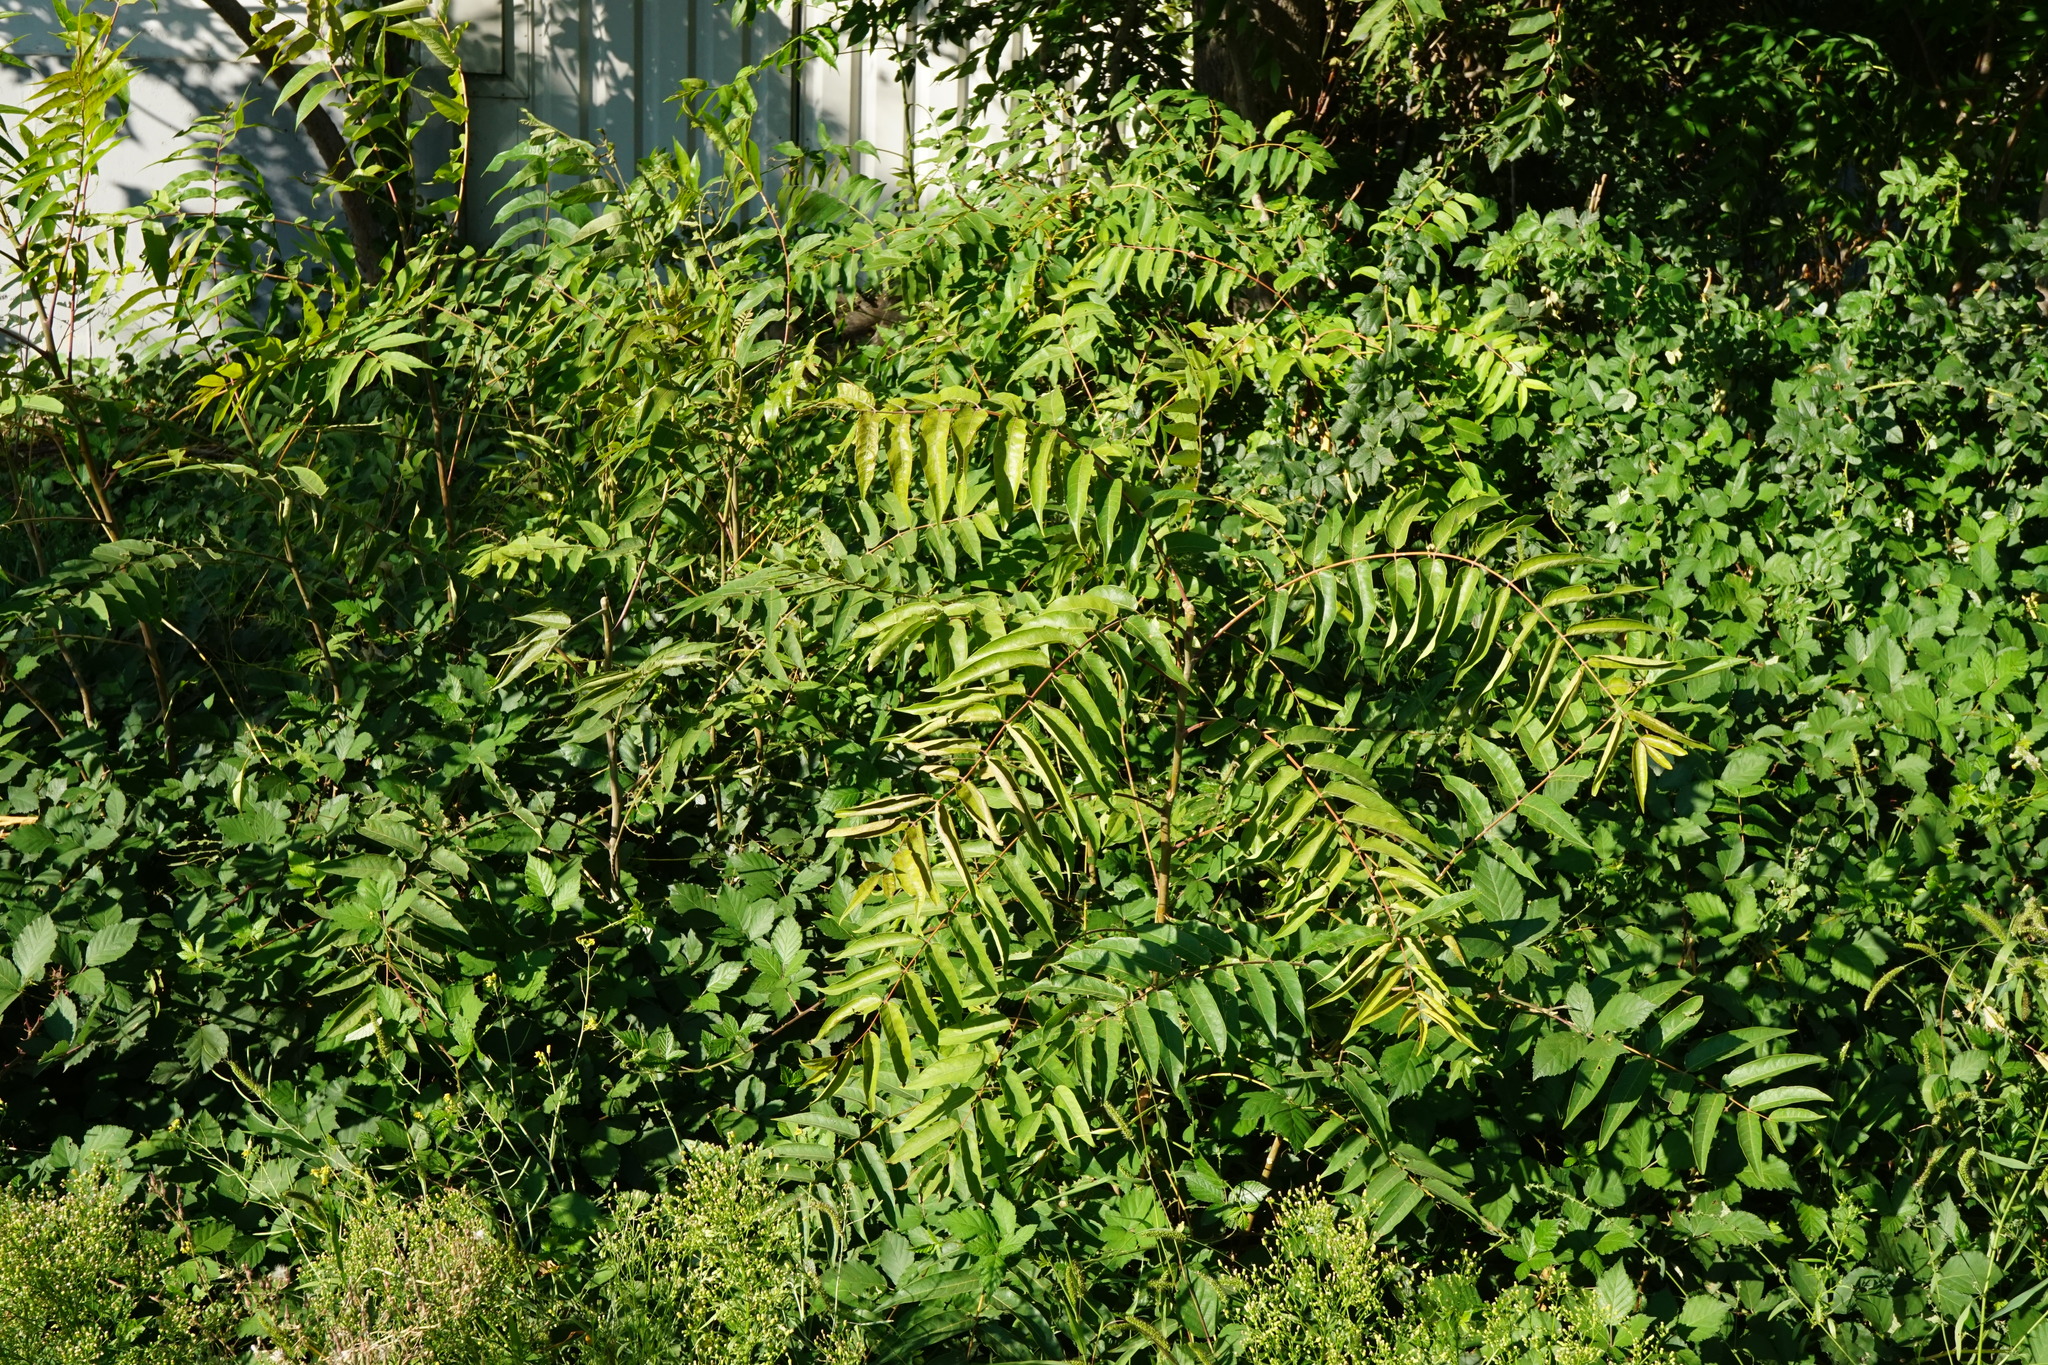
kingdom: Plantae
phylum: Tracheophyta
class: Magnoliopsida
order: Sapindales
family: Simaroubaceae
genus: Ailanthus
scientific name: Ailanthus altissima
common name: Tree-of-heaven
